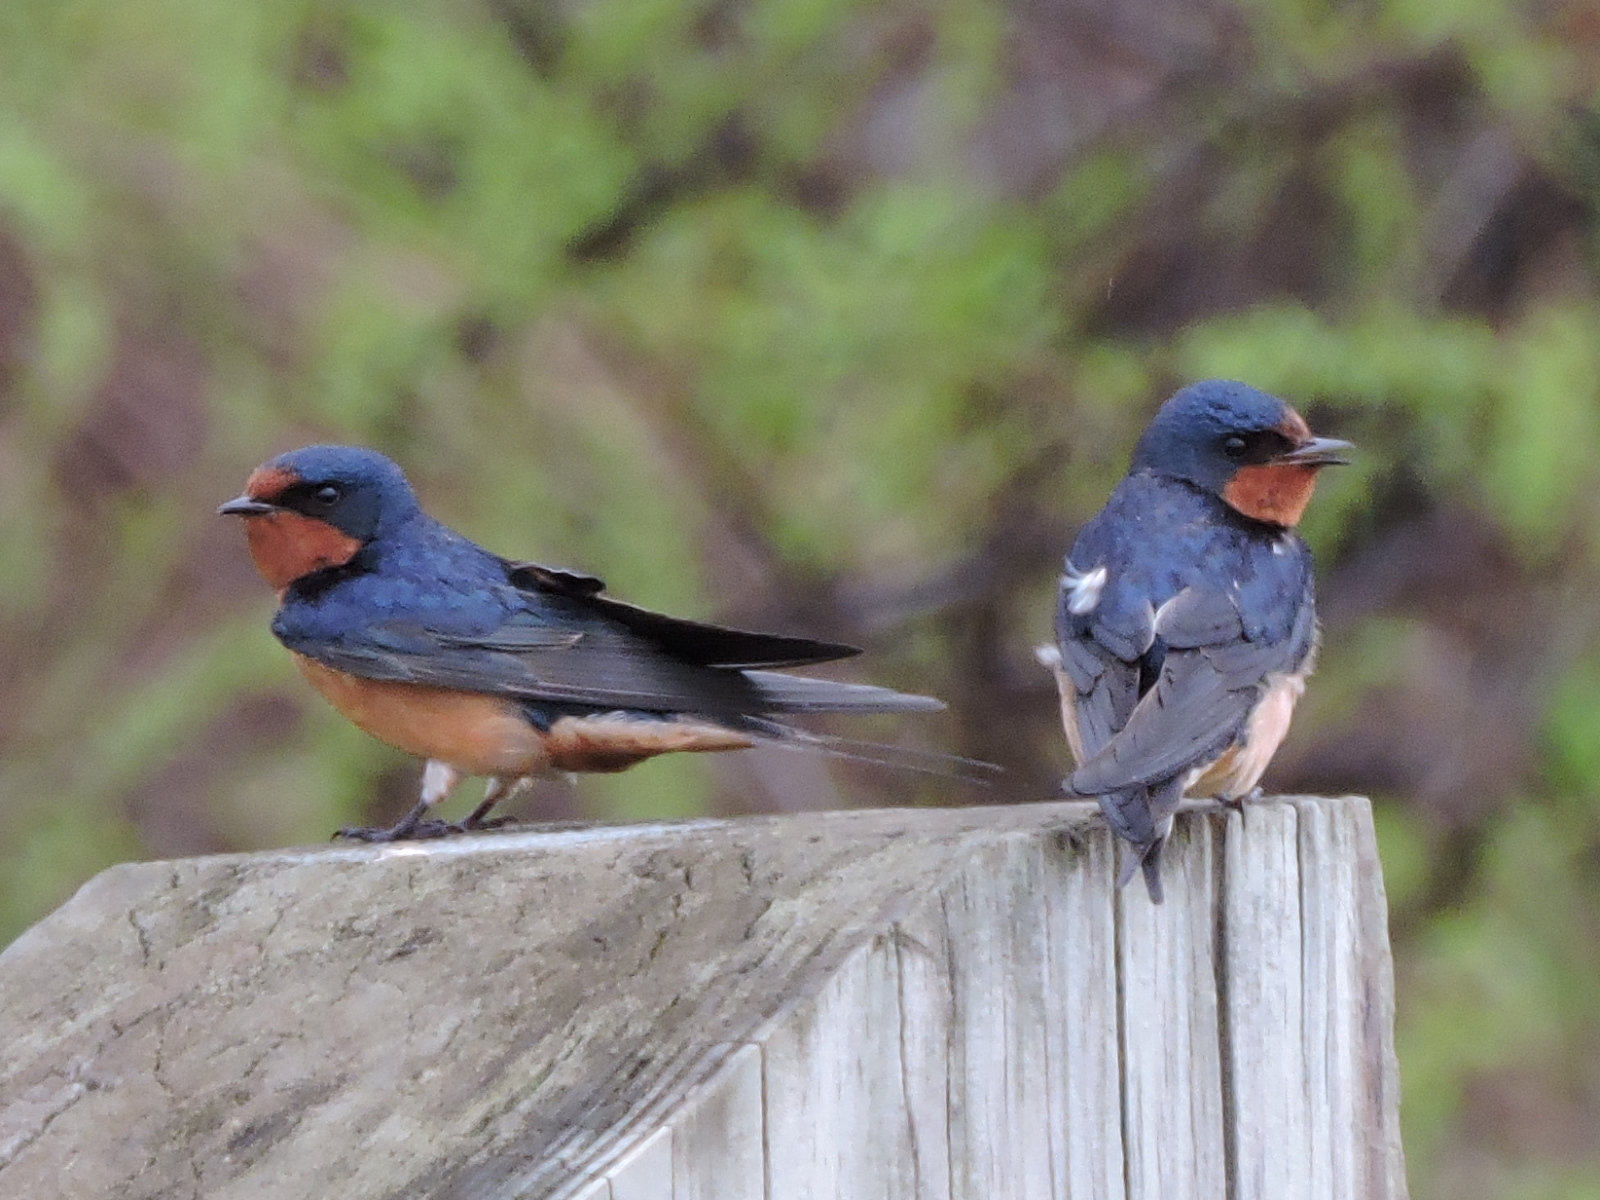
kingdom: Animalia
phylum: Chordata
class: Aves
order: Passeriformes
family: Hirundinidae
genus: Hirundo
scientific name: Hirundo rustica
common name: Barn swallow
